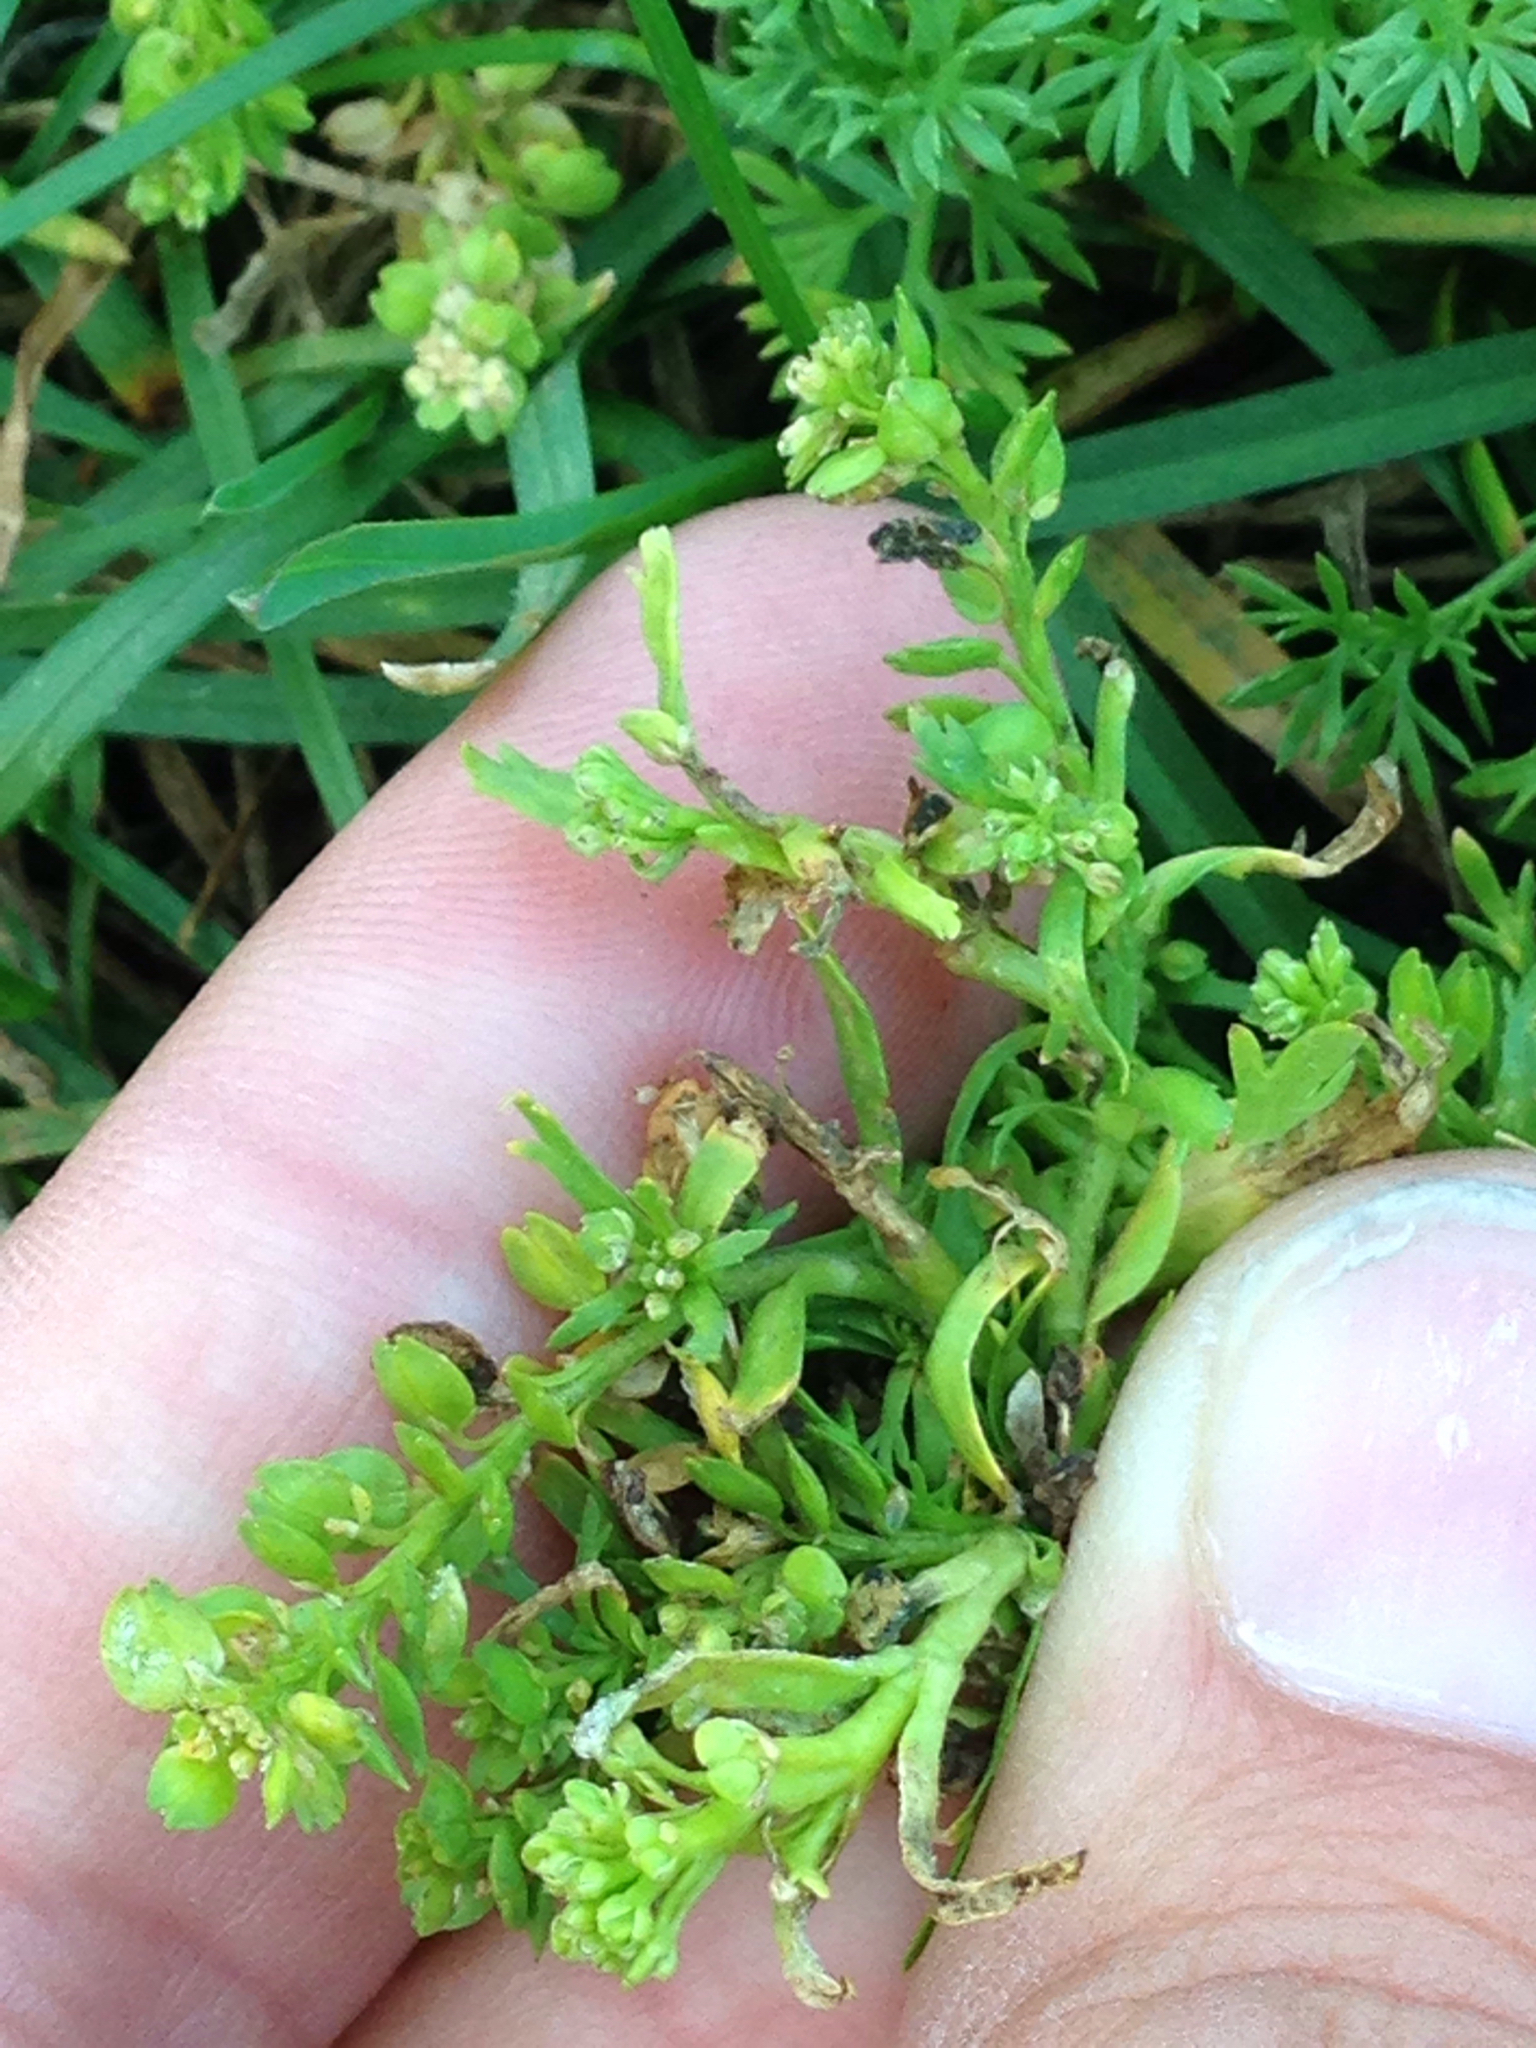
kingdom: Plantae
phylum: Tracheophyta
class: Magnoliopsida
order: Brassicales
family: Brassicaceae
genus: Lepidium
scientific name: Lepidium strictum
